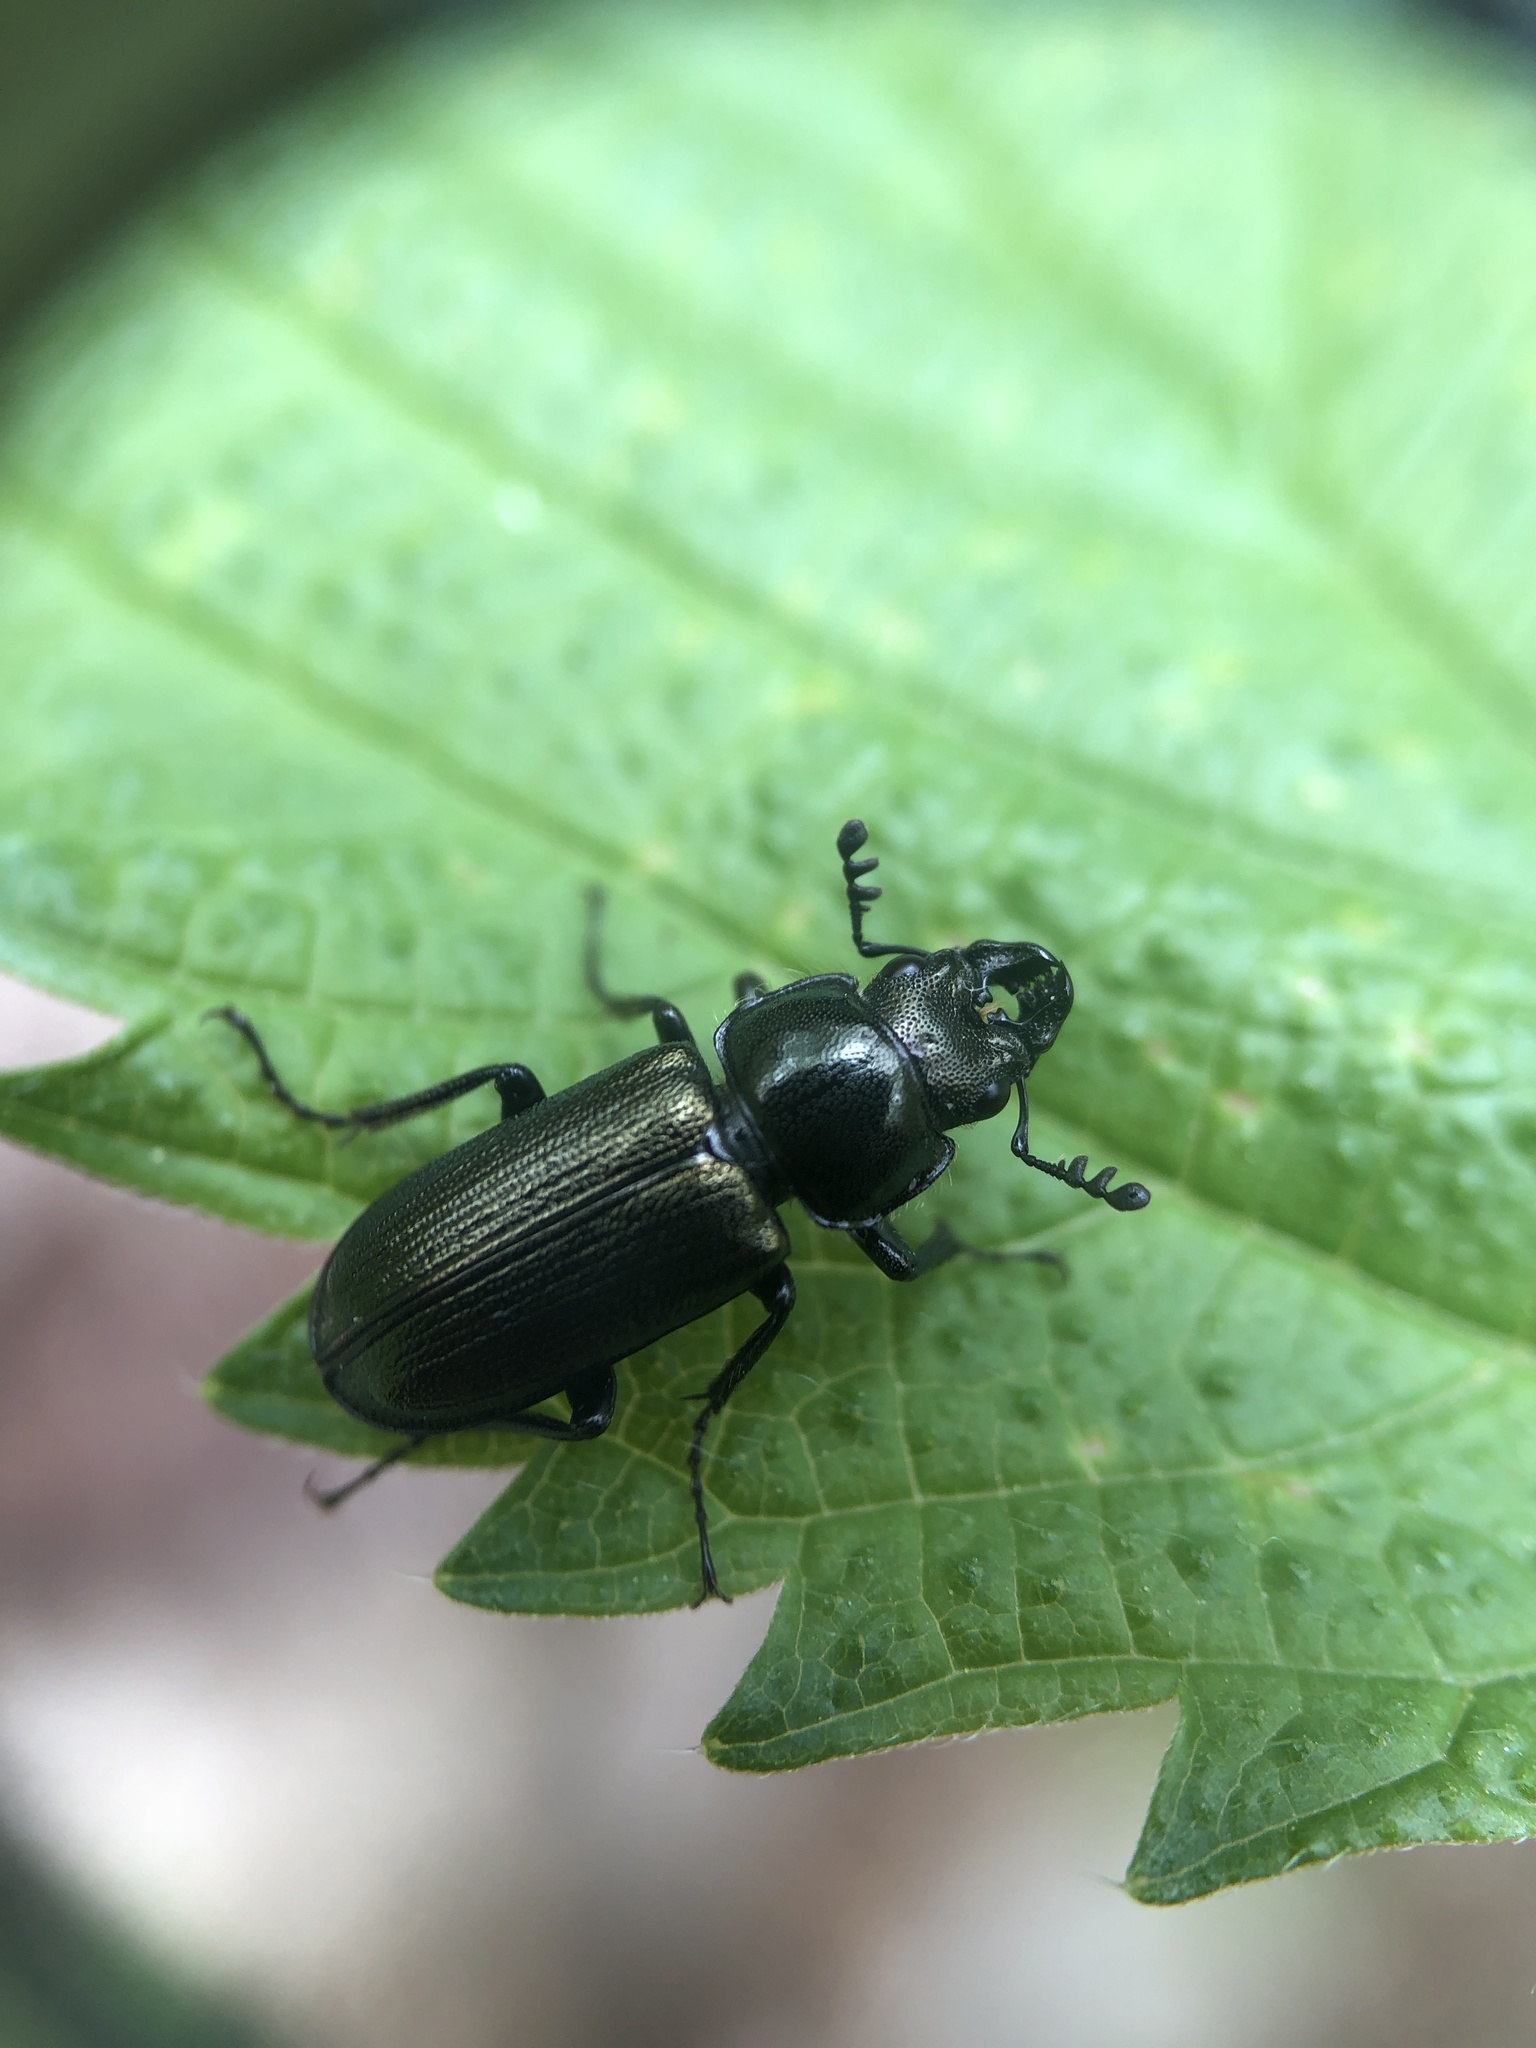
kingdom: Animalia
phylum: Arthropoda
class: Insecta
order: Coleoptera
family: Lucanidae
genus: Platycerus
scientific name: Platycerus quercus
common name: Oak stag beetle
